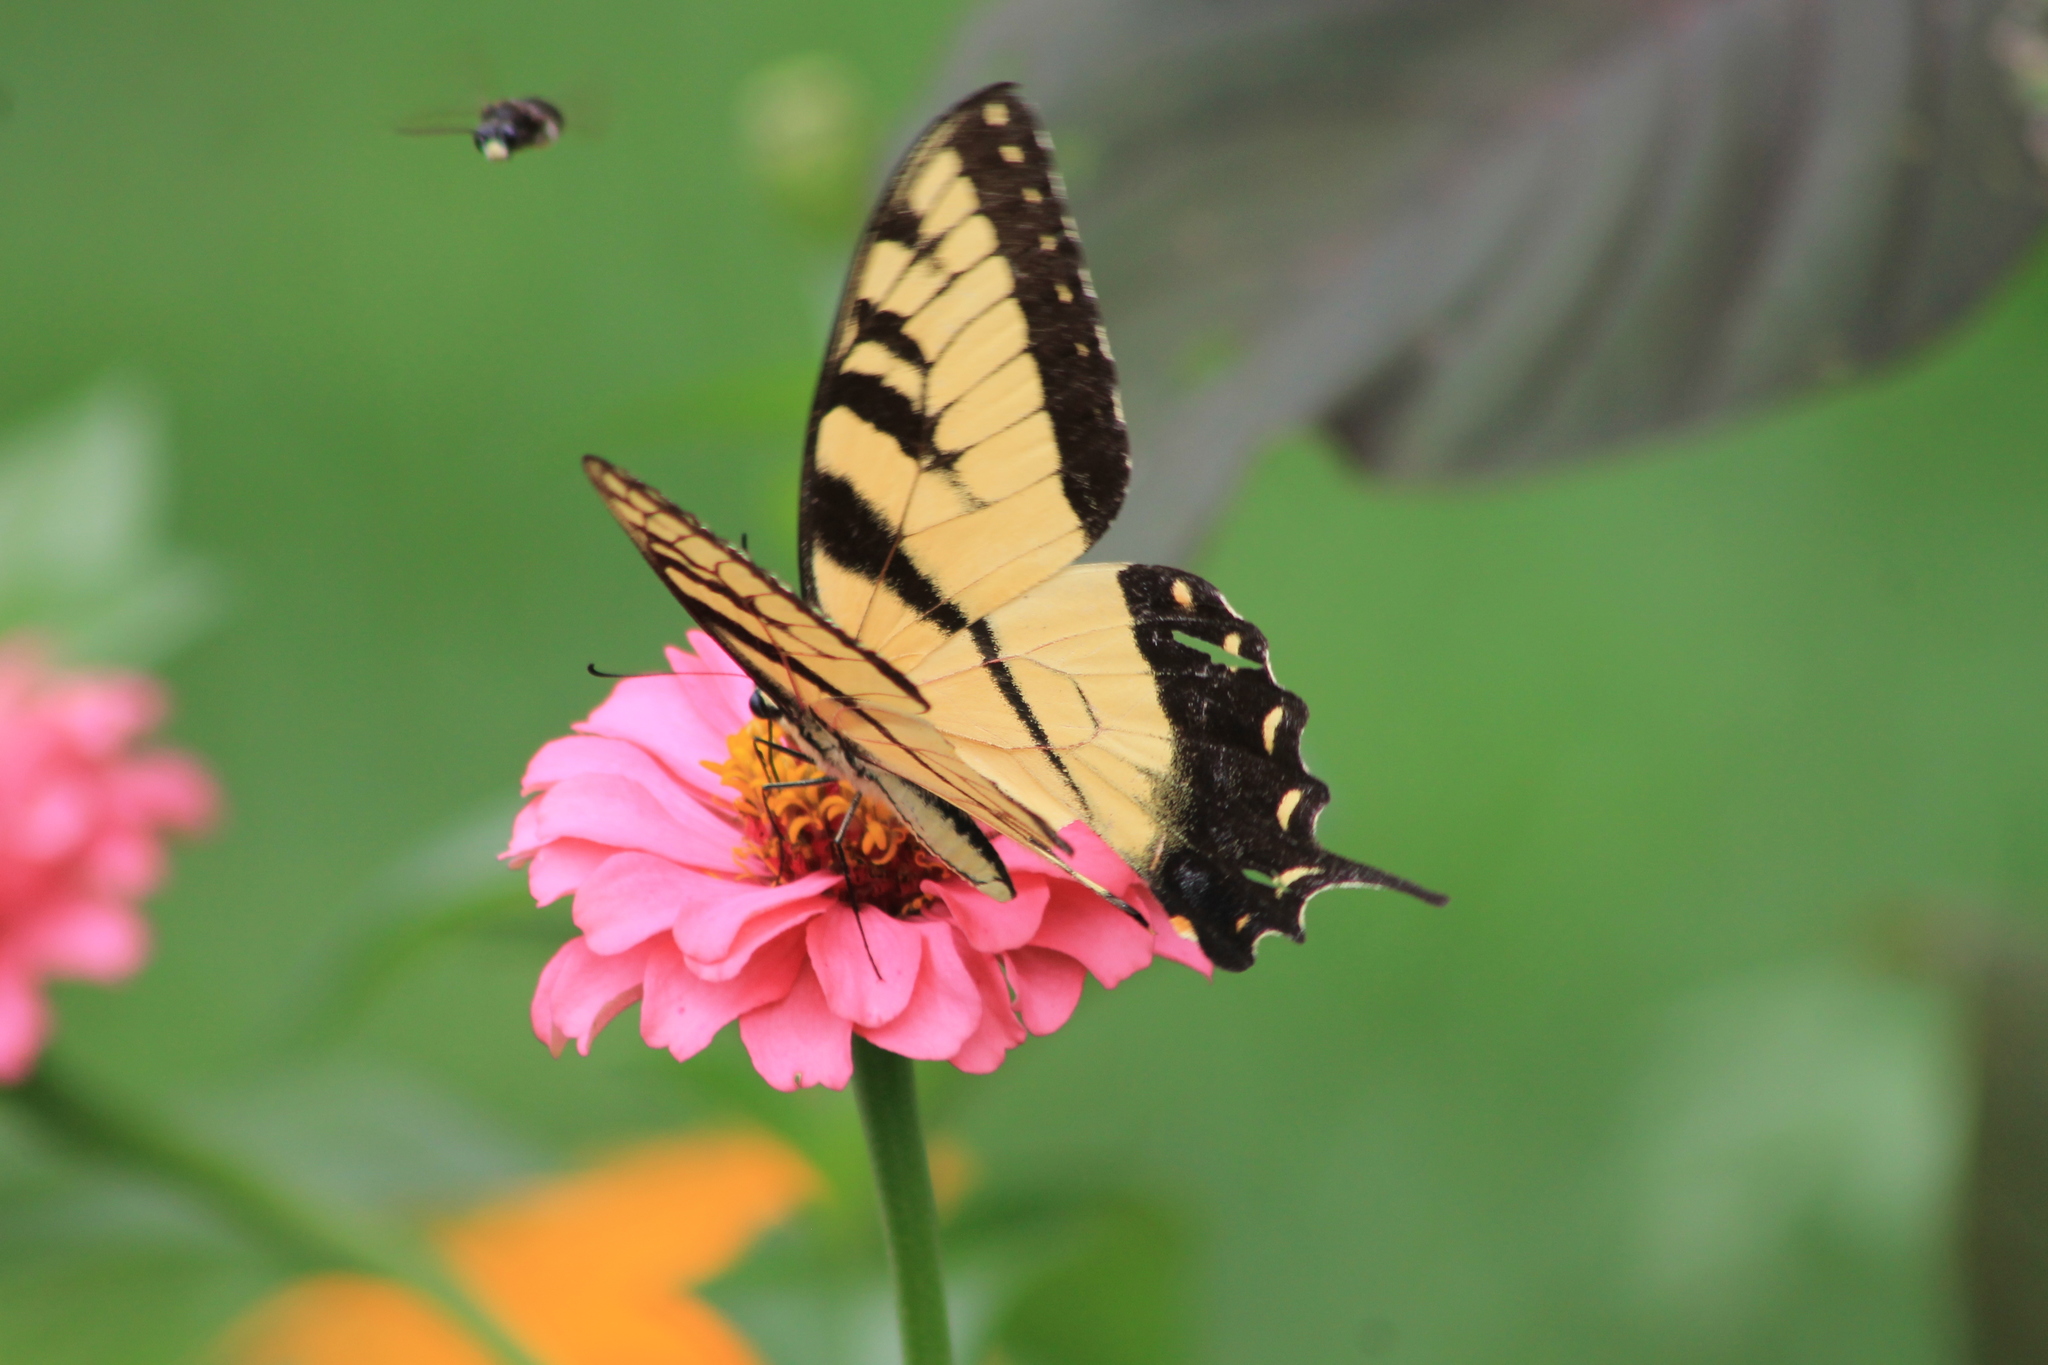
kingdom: Animalia
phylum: Arthropoda
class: Insecta
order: Lepidoptera
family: Papilionidae
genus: Papilio
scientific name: Papilio glaucus
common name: Tiger swallowtail
